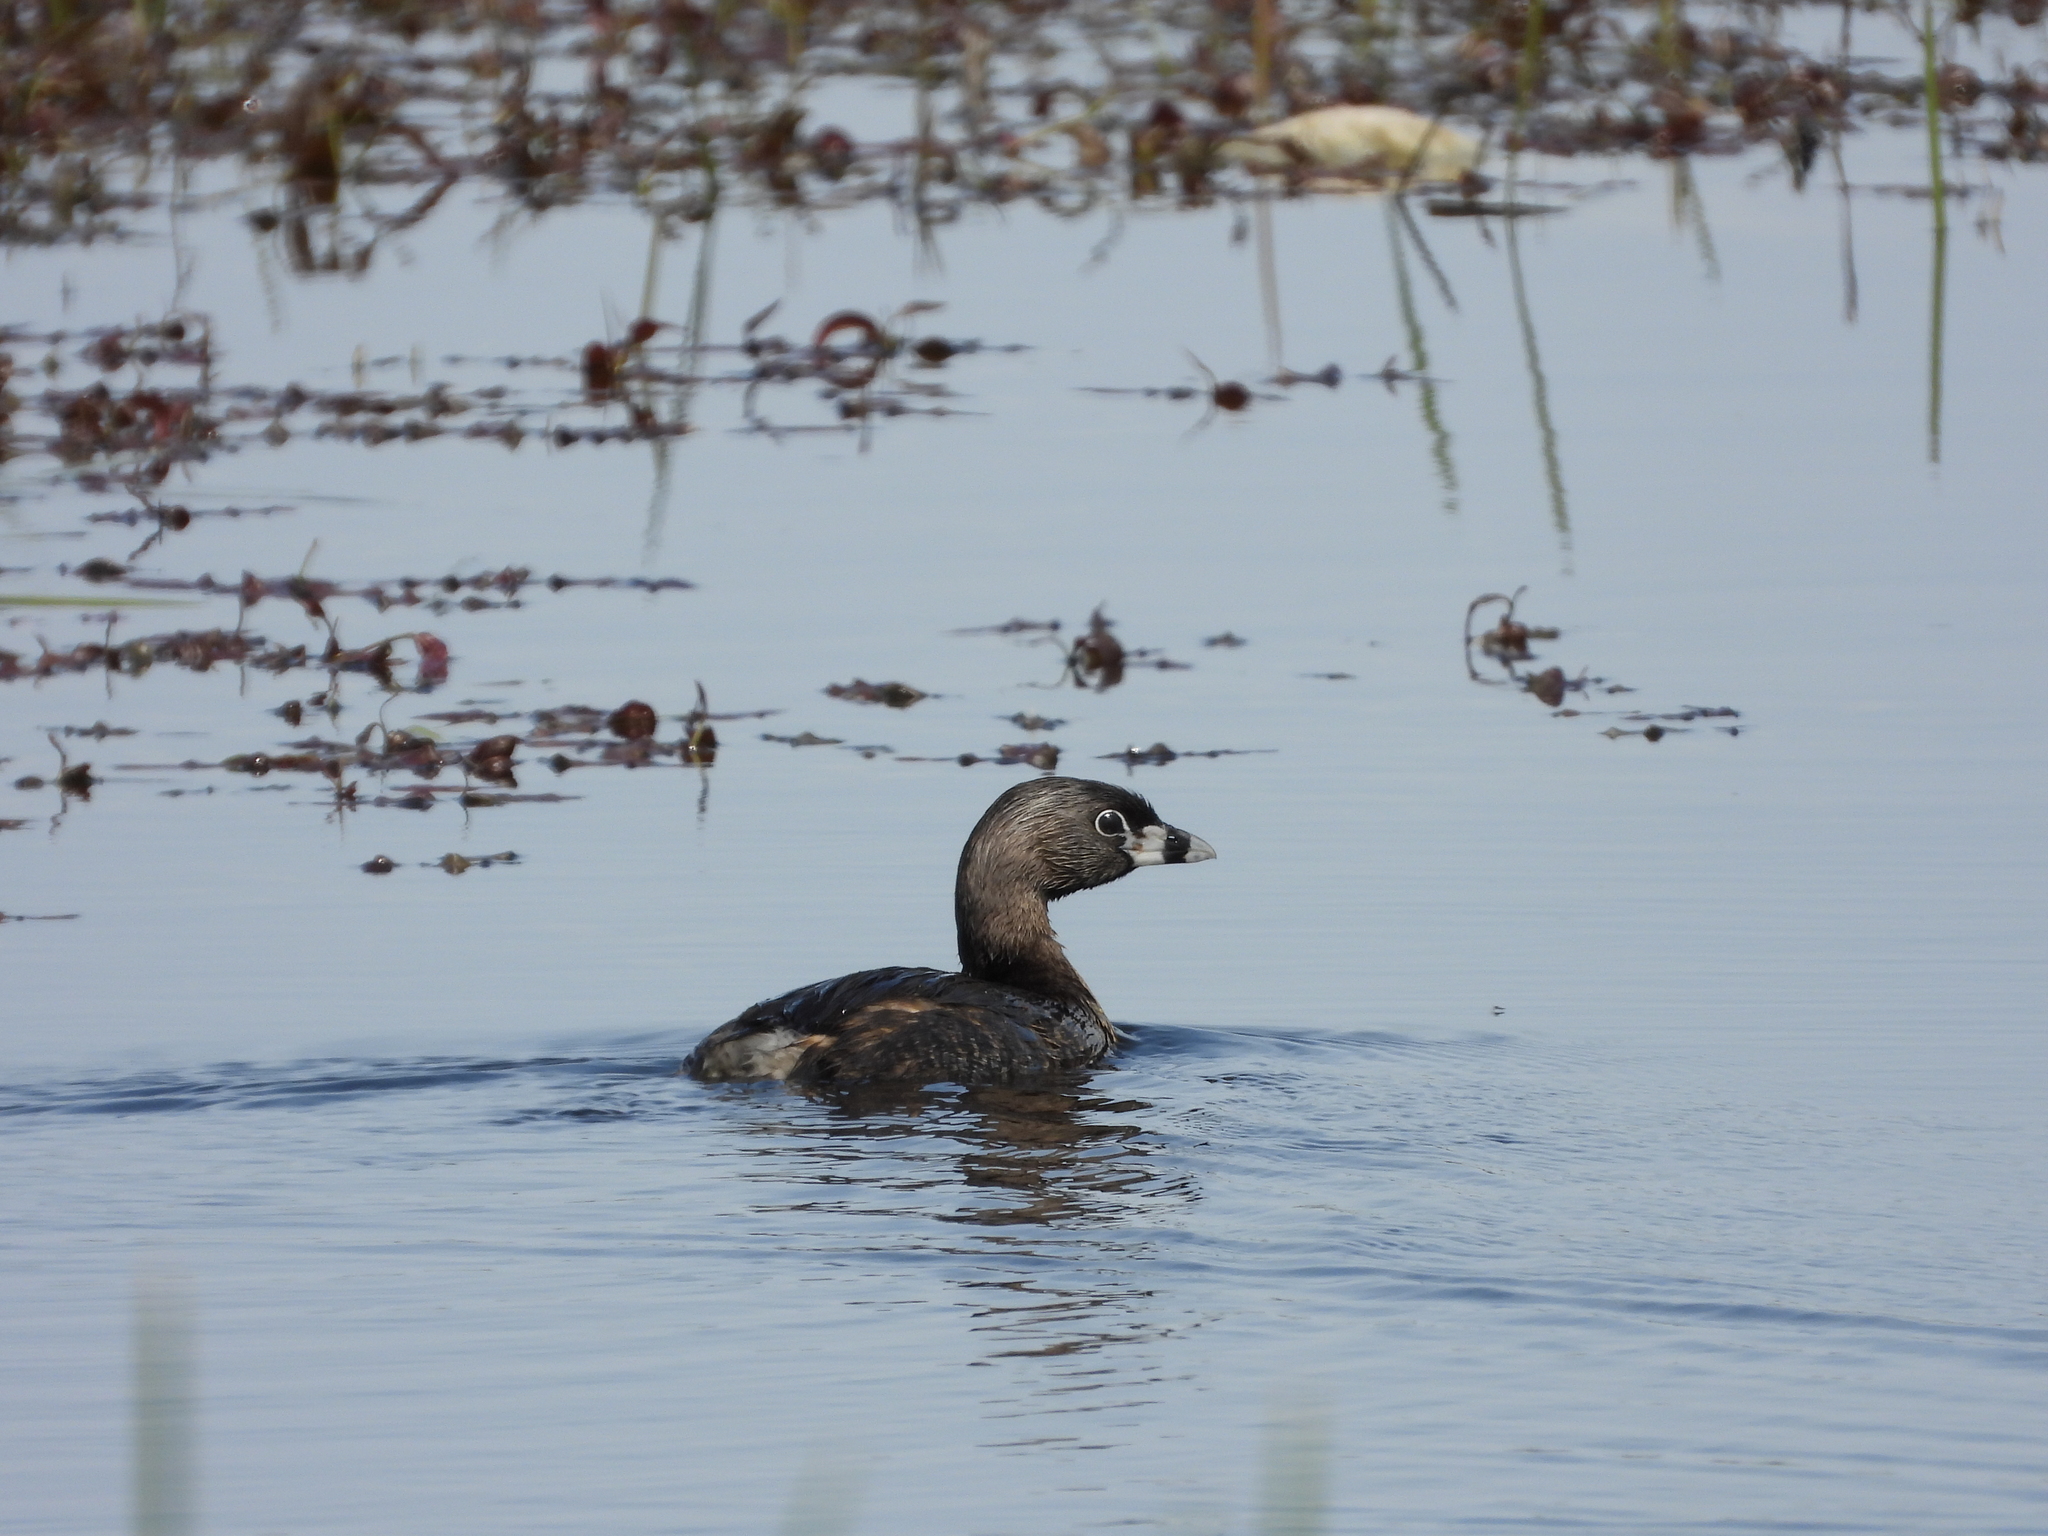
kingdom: Animalia
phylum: Chordata
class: Aves
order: Podicipediformes
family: Podicipedidae
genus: Podilymbus
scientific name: Podilymbus podiceps
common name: Pied-billed grebe
